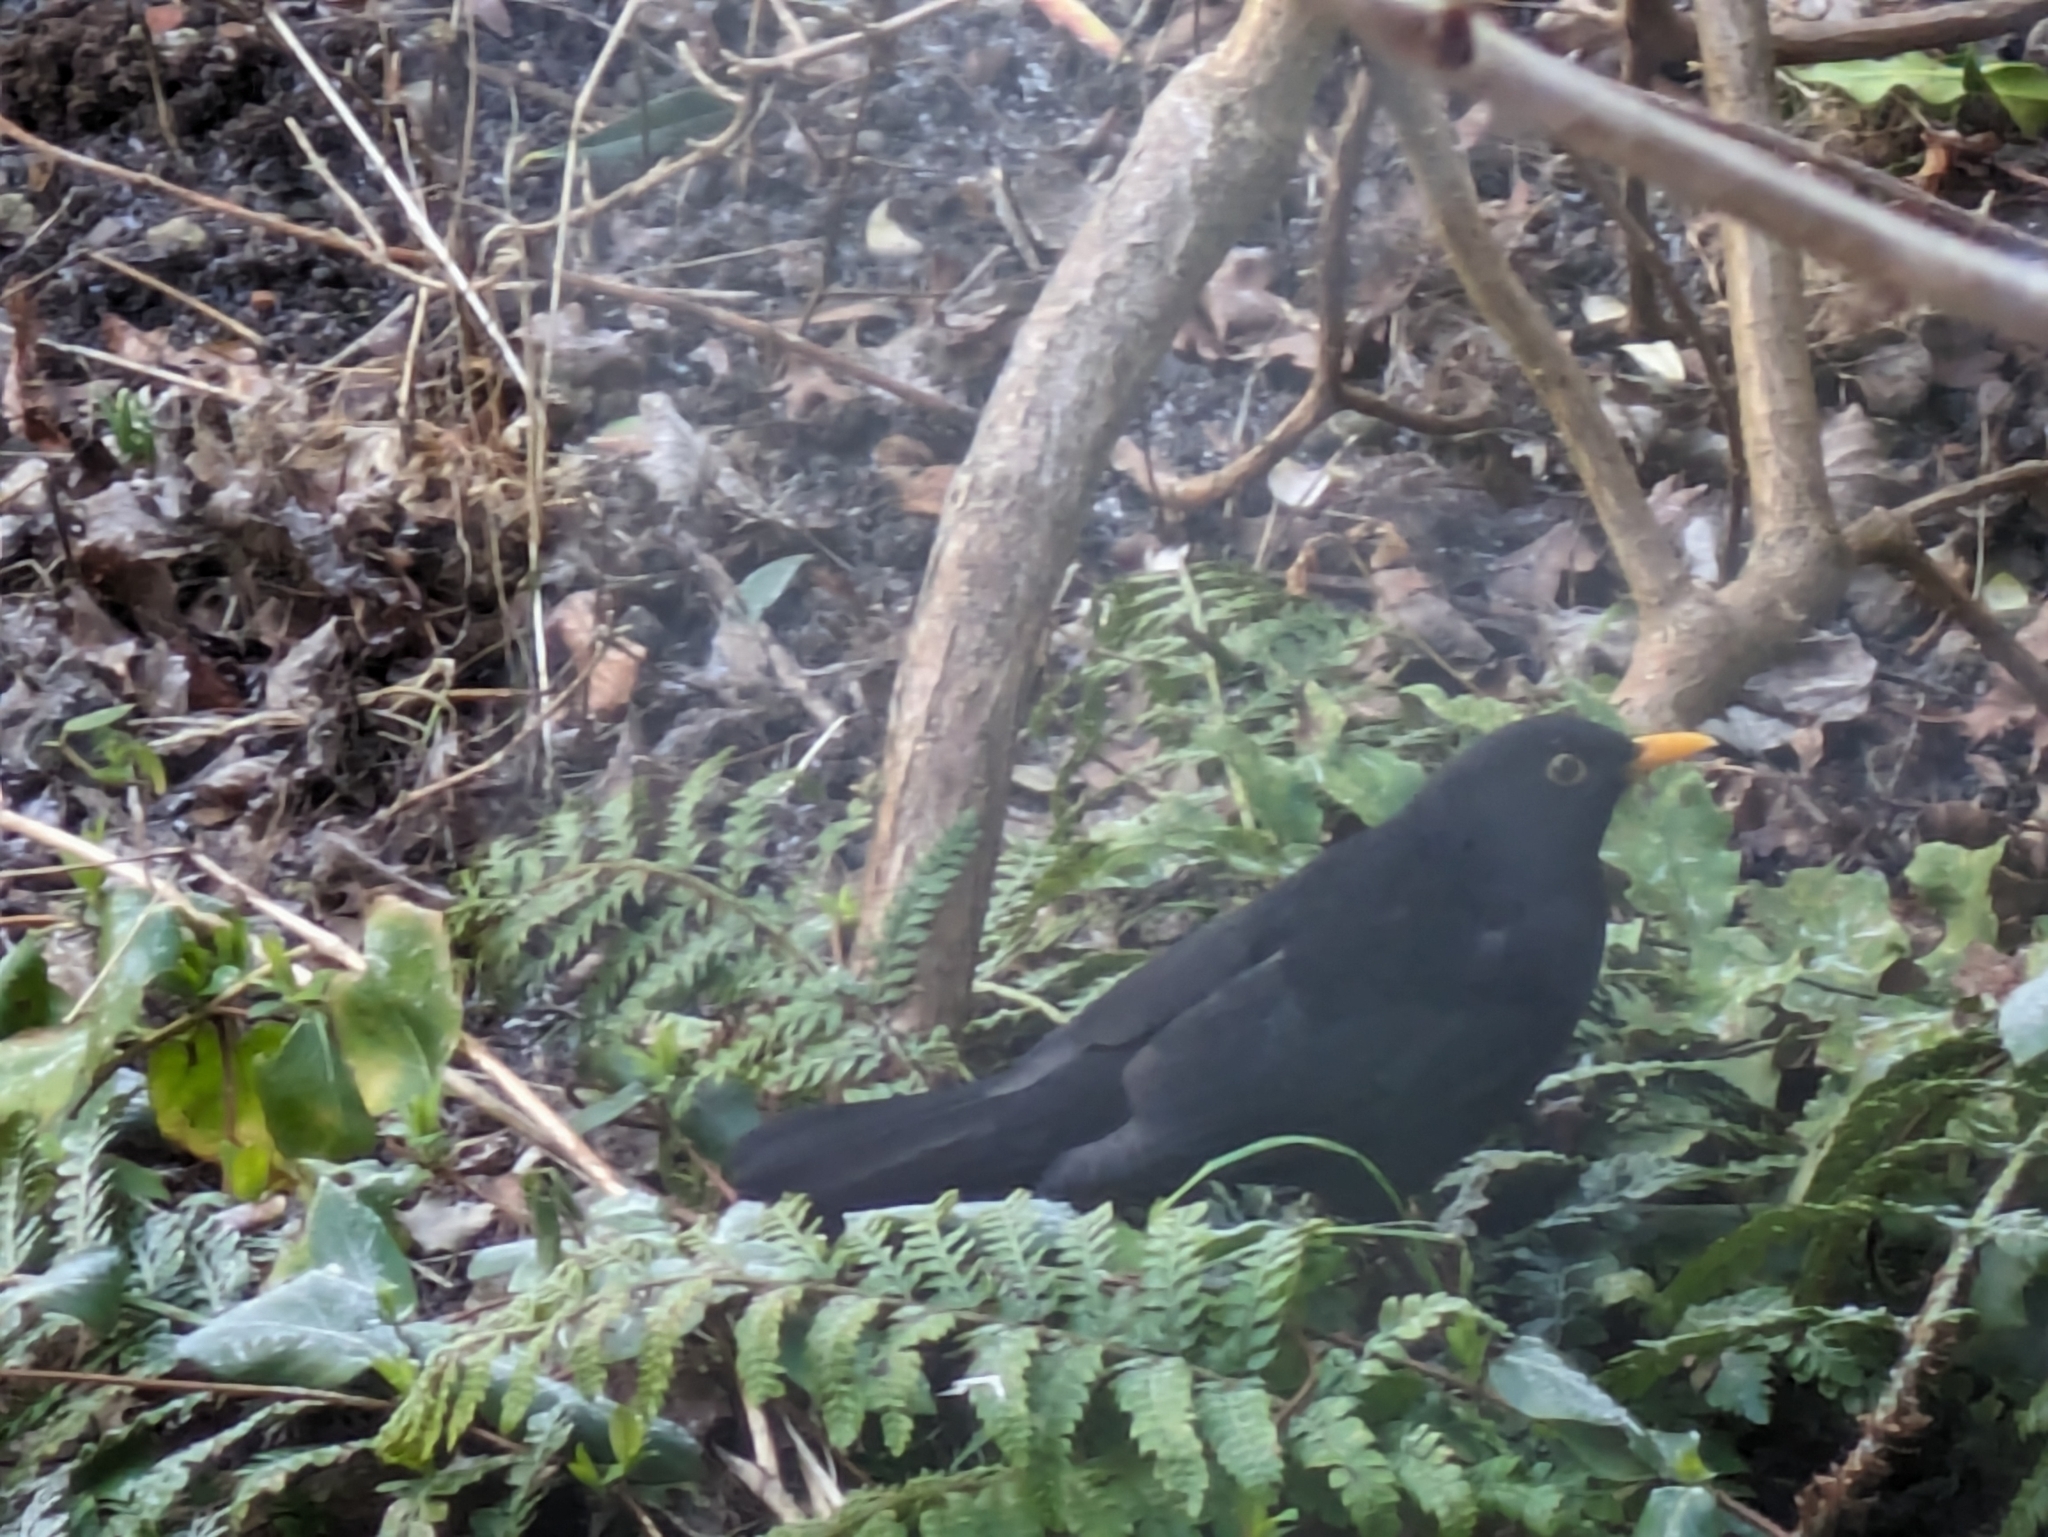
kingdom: Animalia
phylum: Chordata
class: Aves
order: Passeriformes
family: Turdidae
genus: Turdus
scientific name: Turdus merula
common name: Common blackbird
